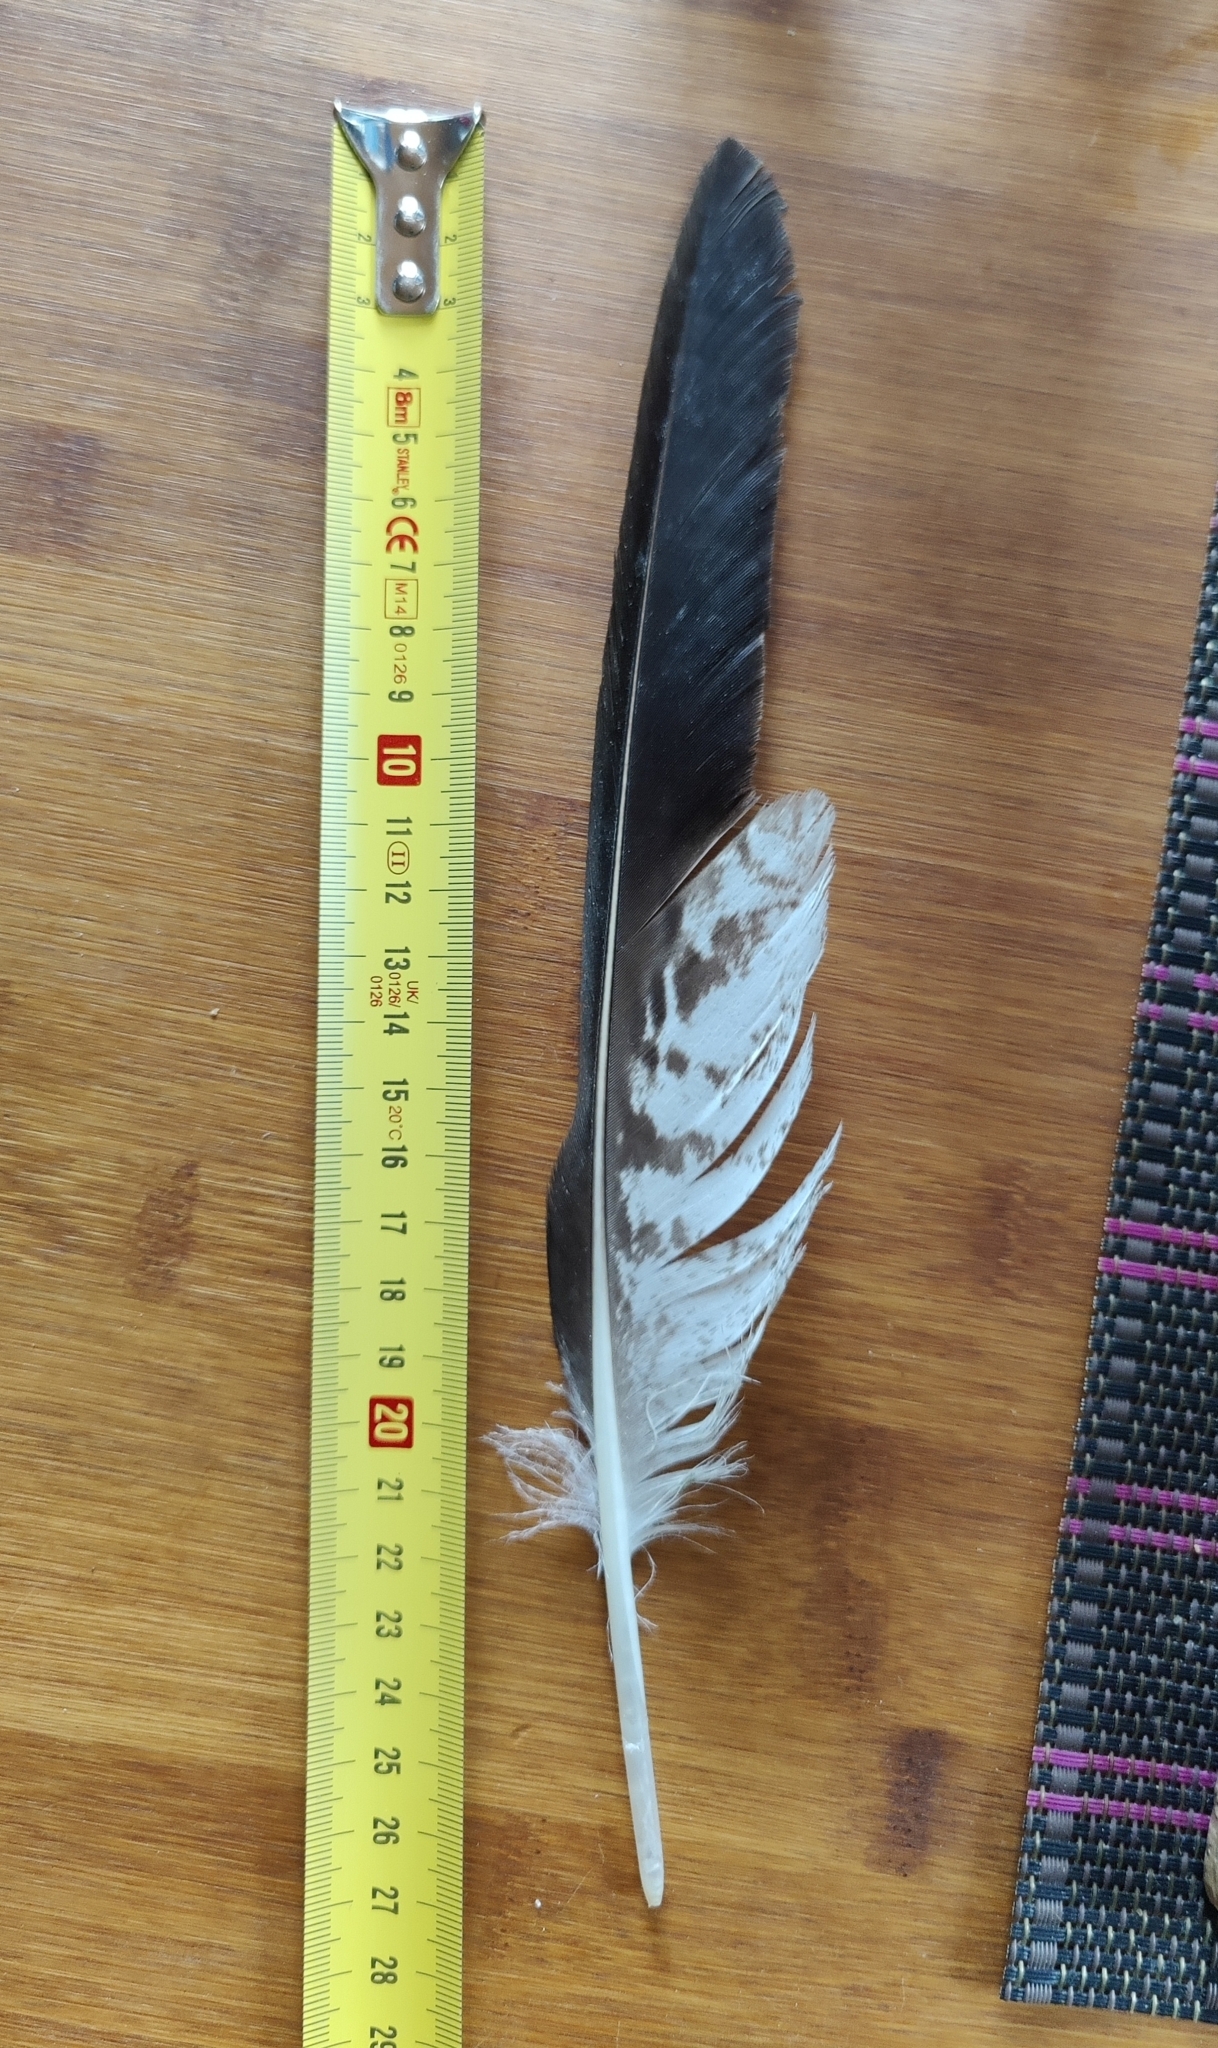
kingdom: Animalia
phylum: Chordata
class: Aves
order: Accipitriformes
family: Accipitridae
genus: Buteo
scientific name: Buteo buteo
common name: Common buzzard
